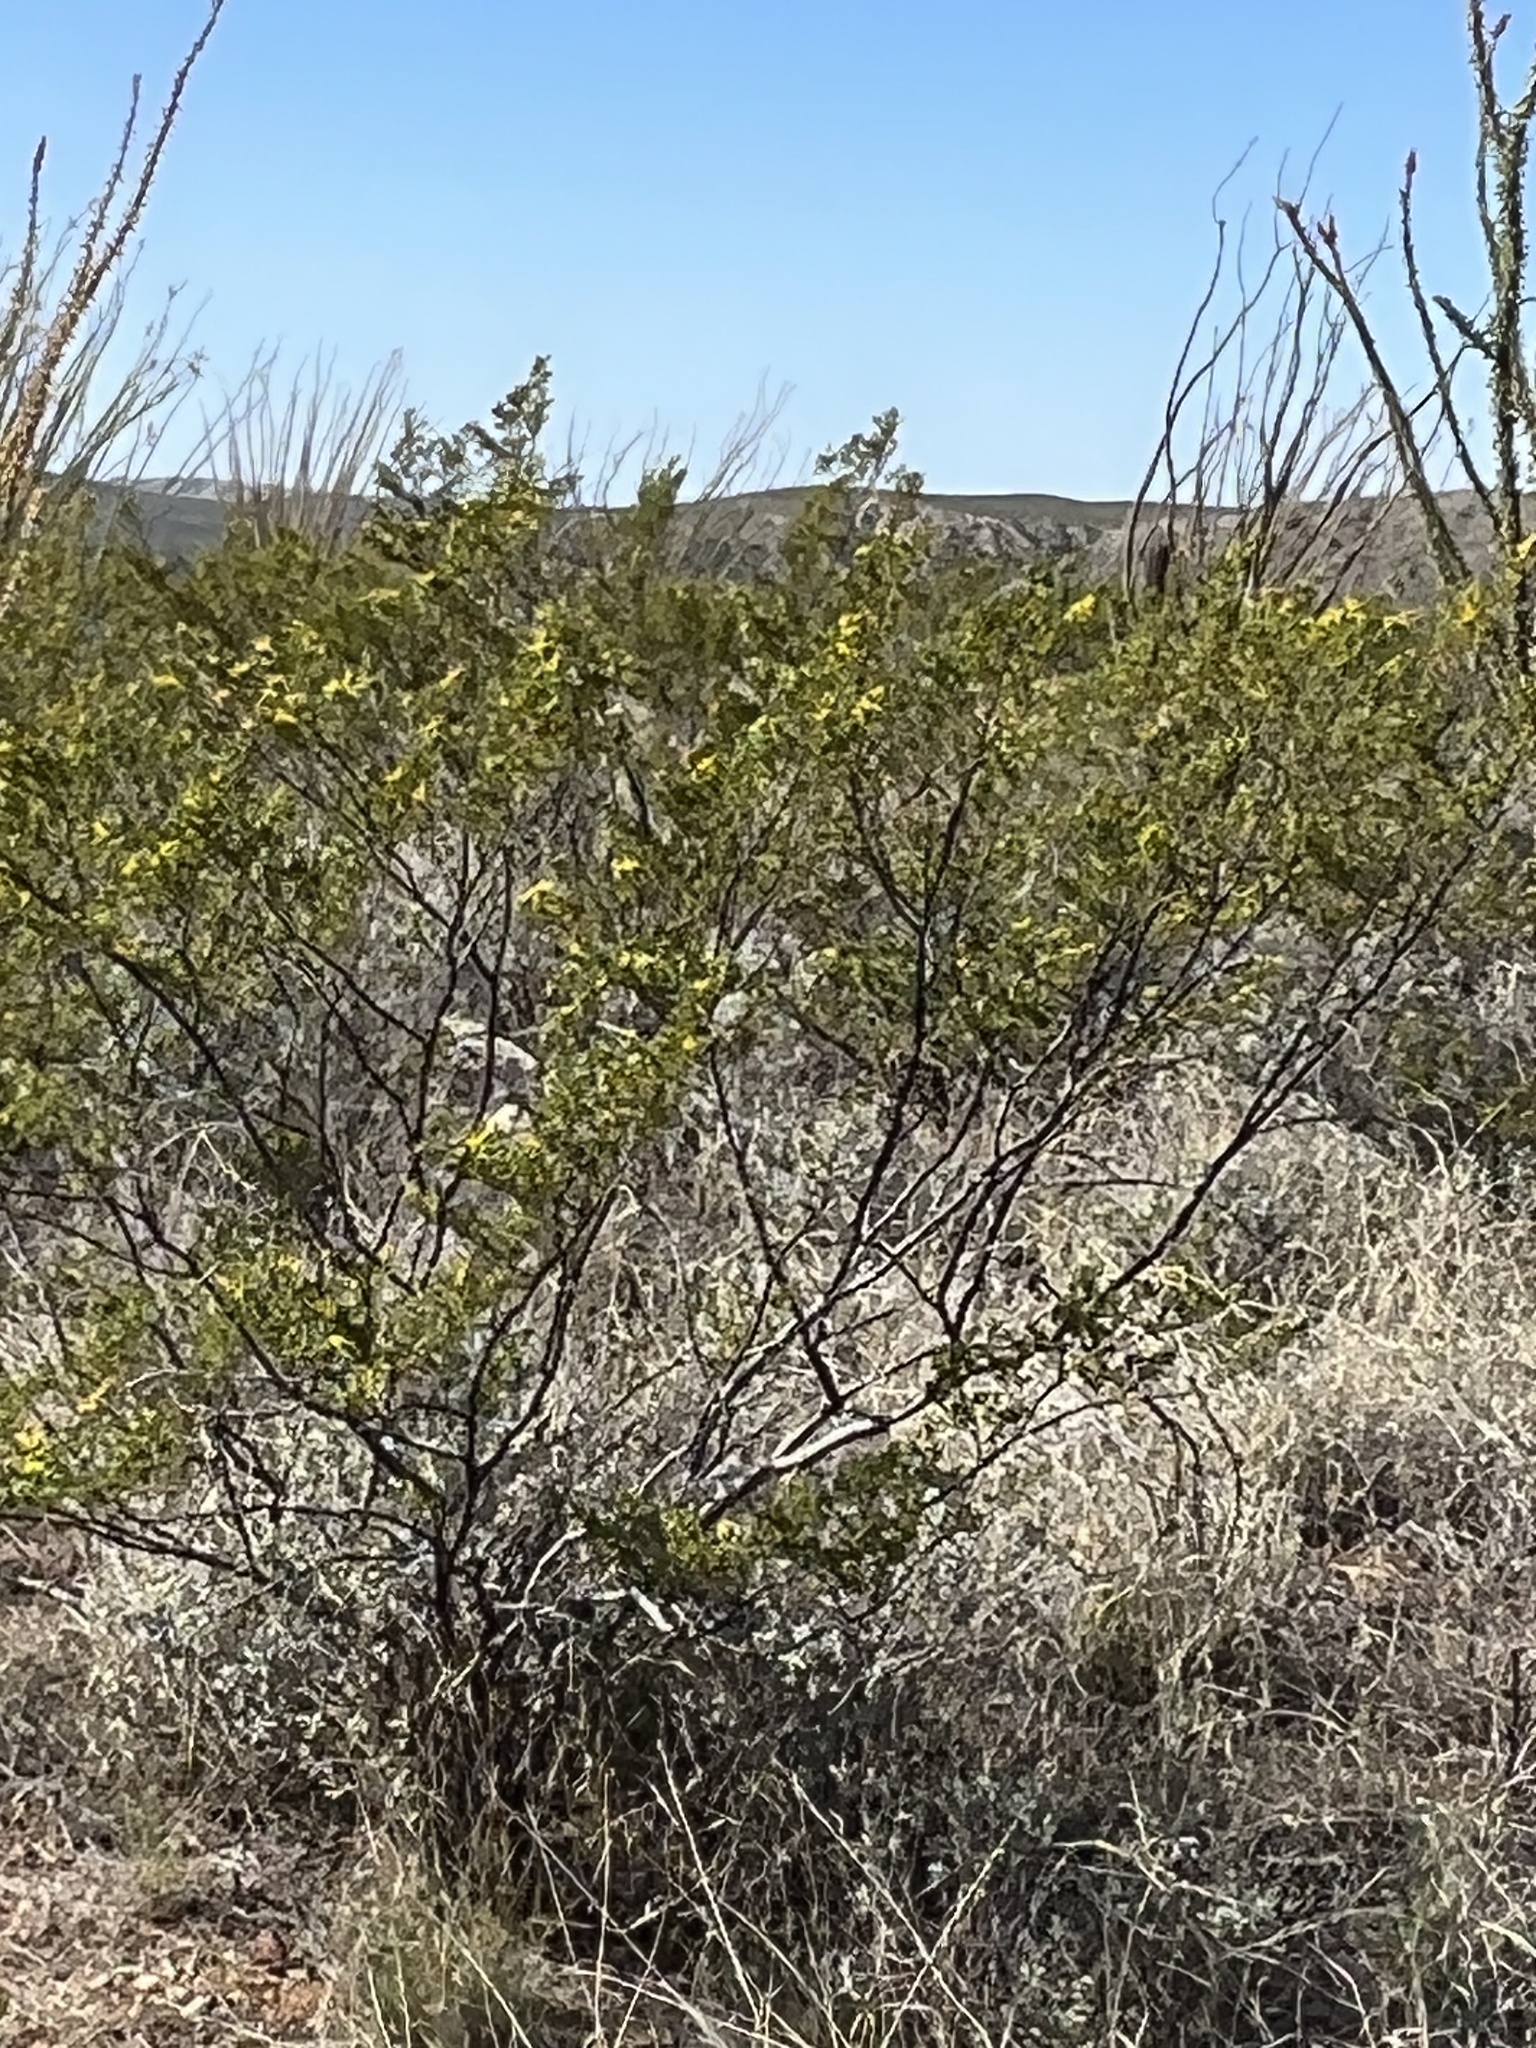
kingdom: Plantae
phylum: Tracheophyta
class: Magnoliopsida
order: Zygophyllales
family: Zygophyllaceae
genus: Larrea
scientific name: Larrea tridentata
